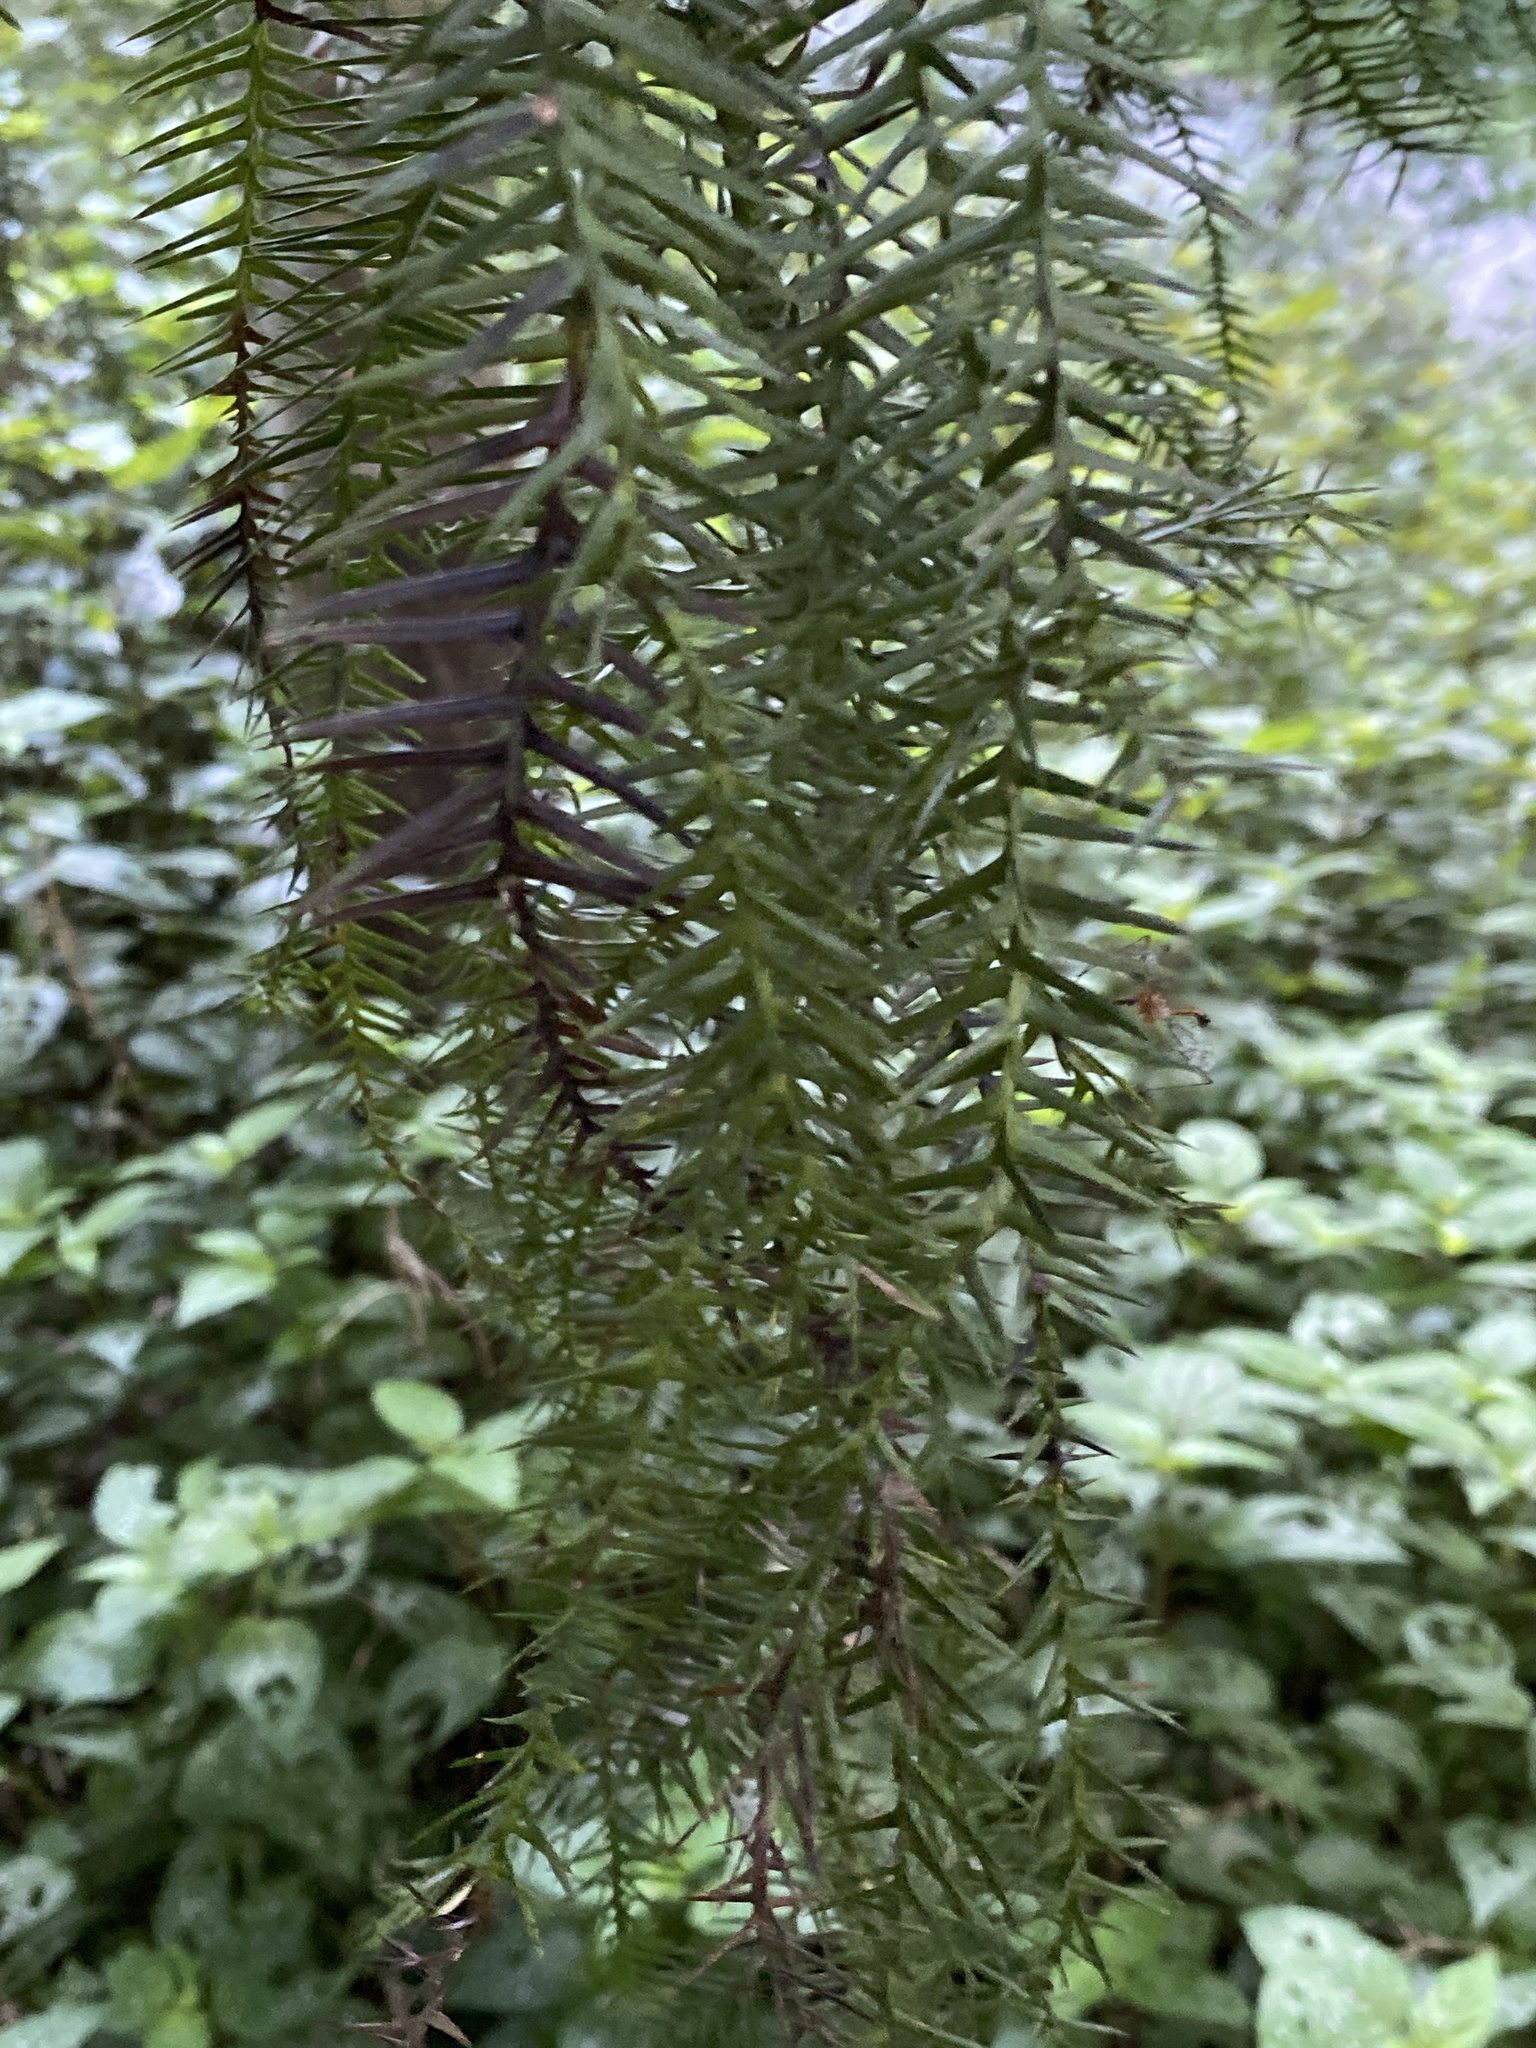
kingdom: Plantae
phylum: Tracheophyta
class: Pinopsida
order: Pinales
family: Araucariaceae
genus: Araucaria
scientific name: Araucaria cunninghamii
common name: Colonial pine
